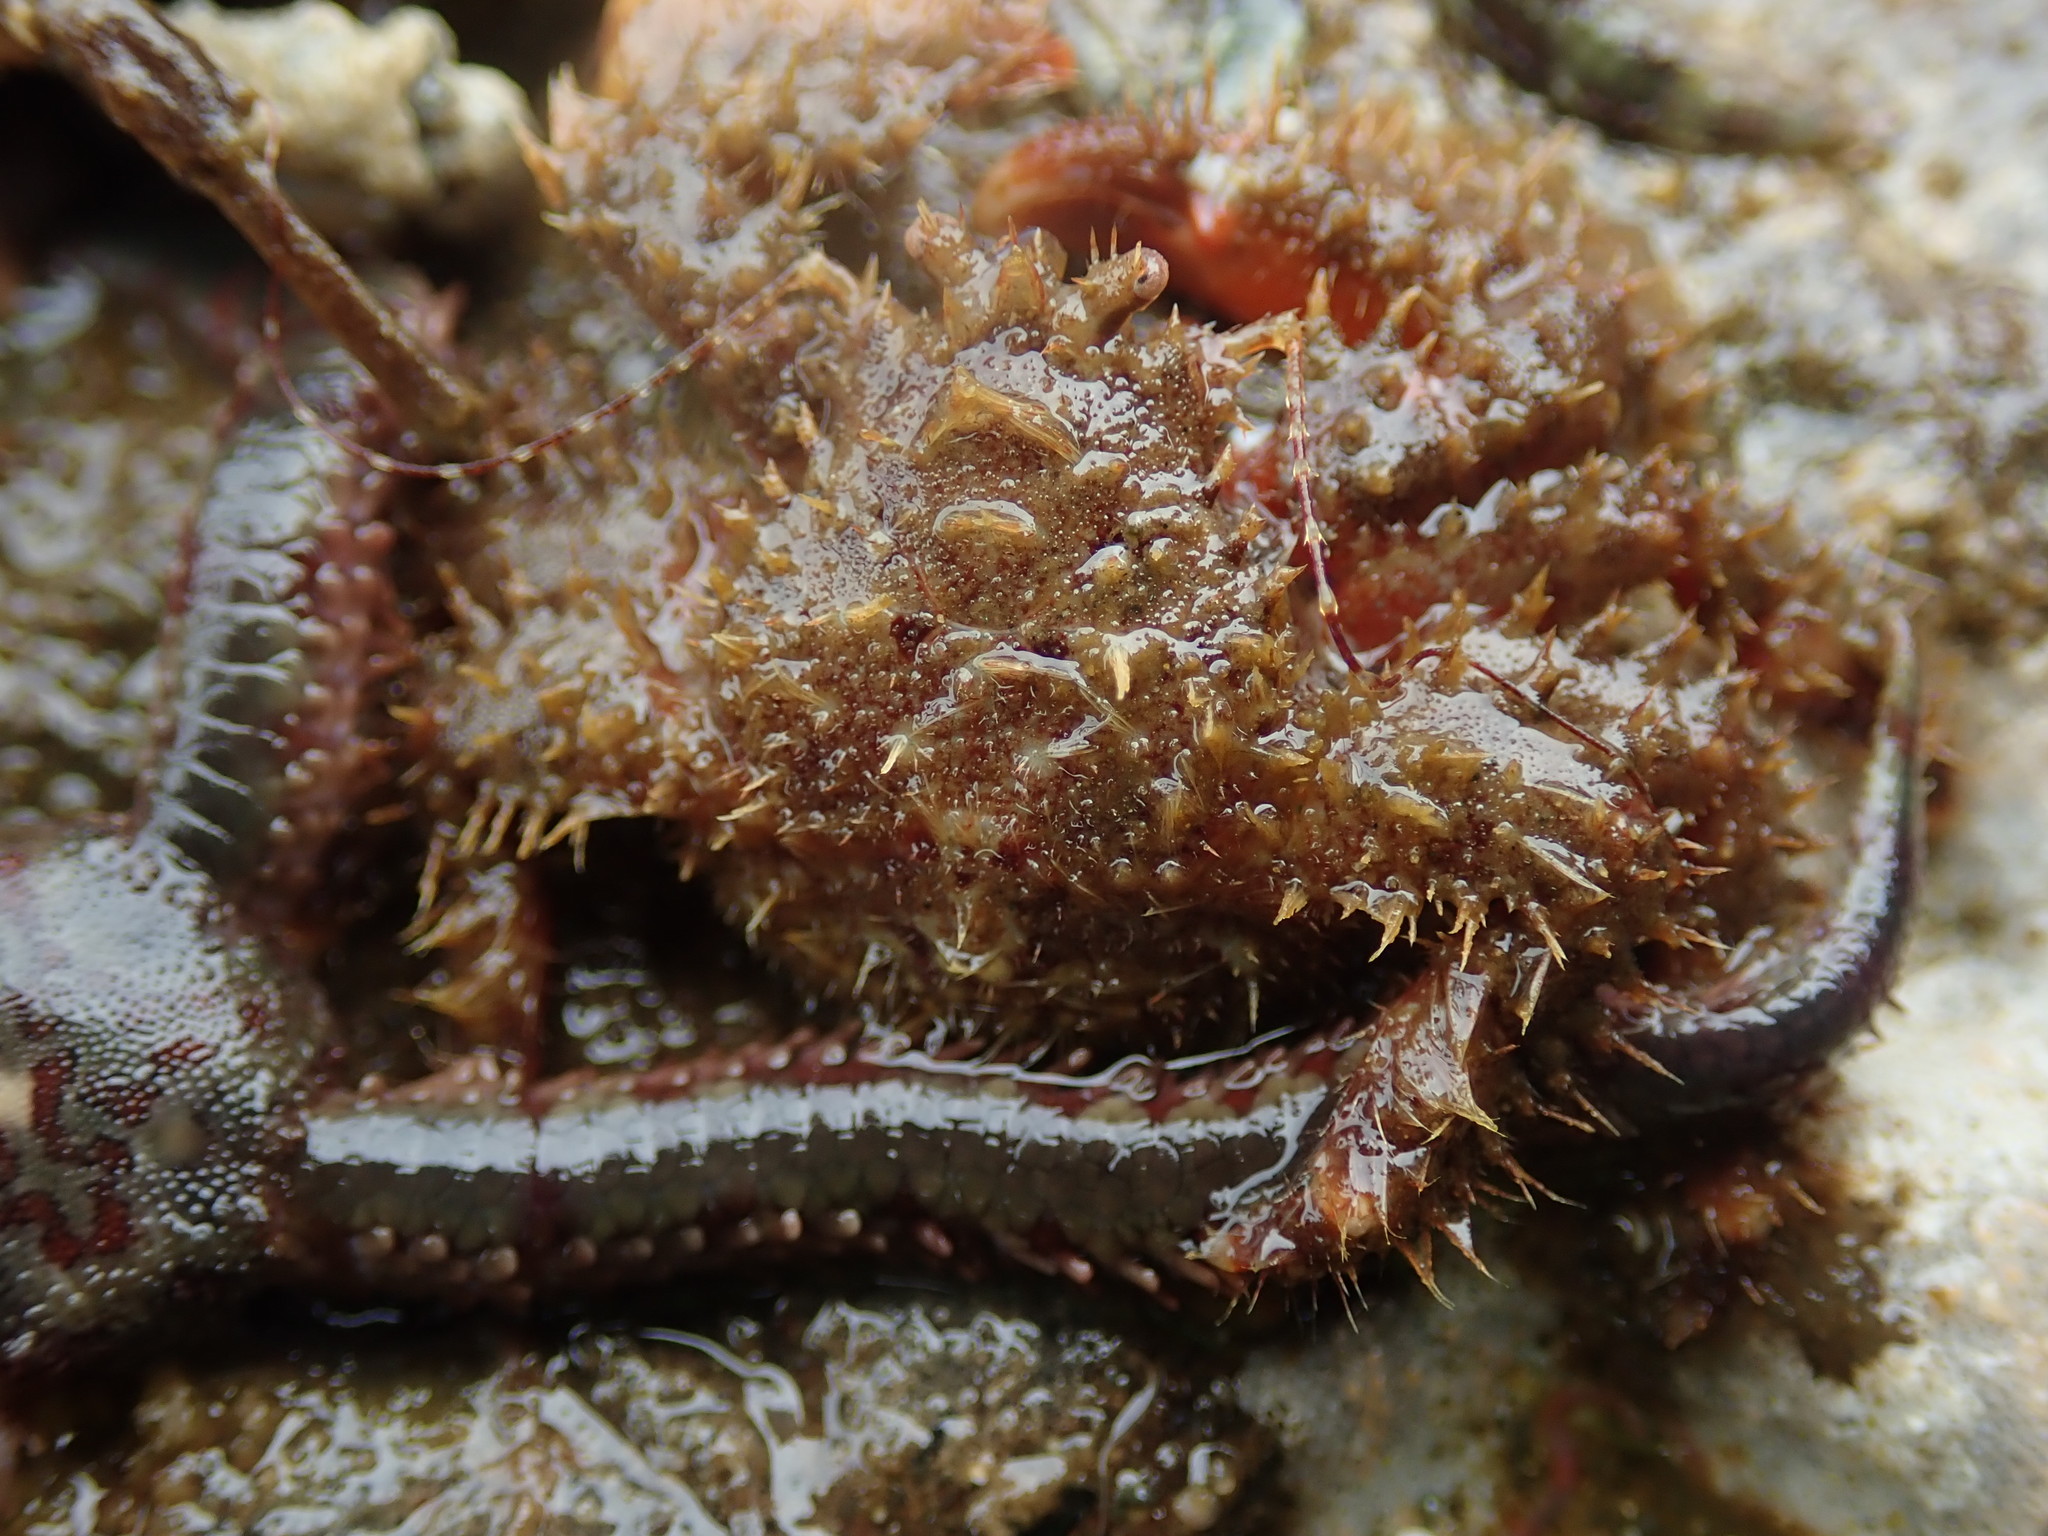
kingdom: Animalia
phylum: Arthropoda
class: Malacostraca
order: Decapoda
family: Hapalogastridae
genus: Hapalogaster
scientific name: Hapalogaster mertensii
